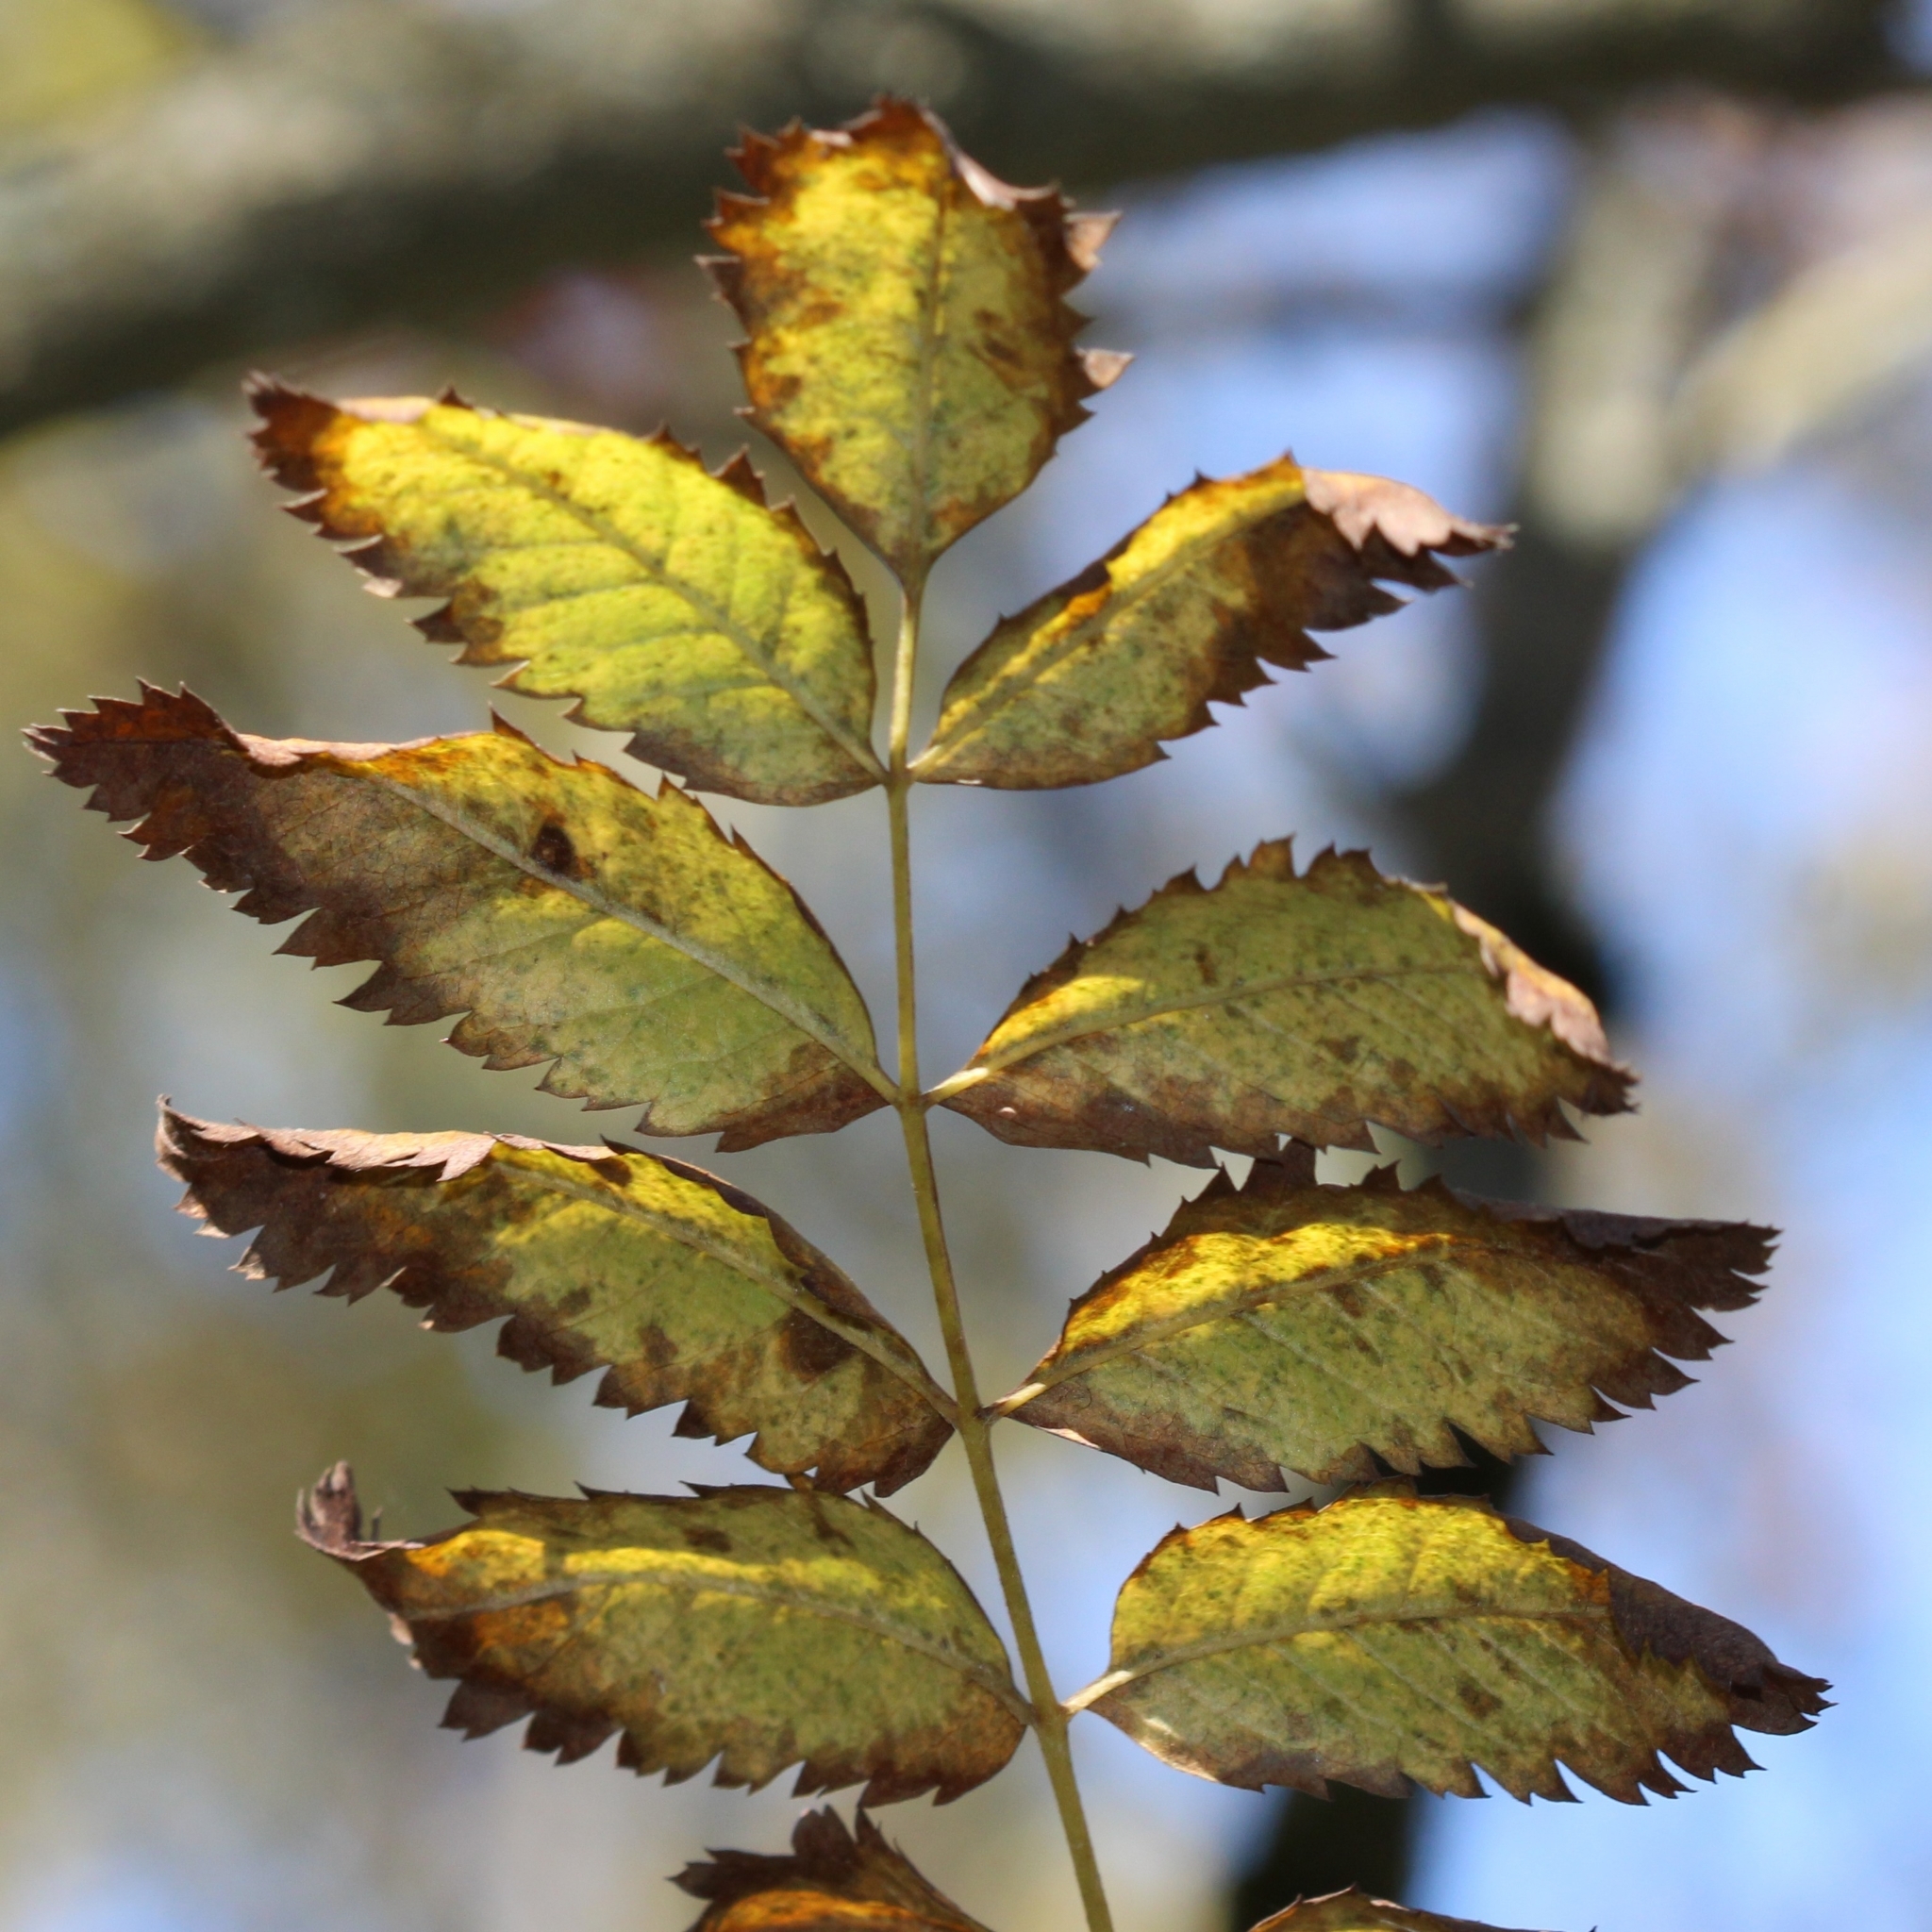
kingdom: Plantae
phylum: Tracheophyta
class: Magnoliopsida
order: Rosales
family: Rosaceae
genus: Sorbus
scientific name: Sorbus aucuparia
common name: Rowan
